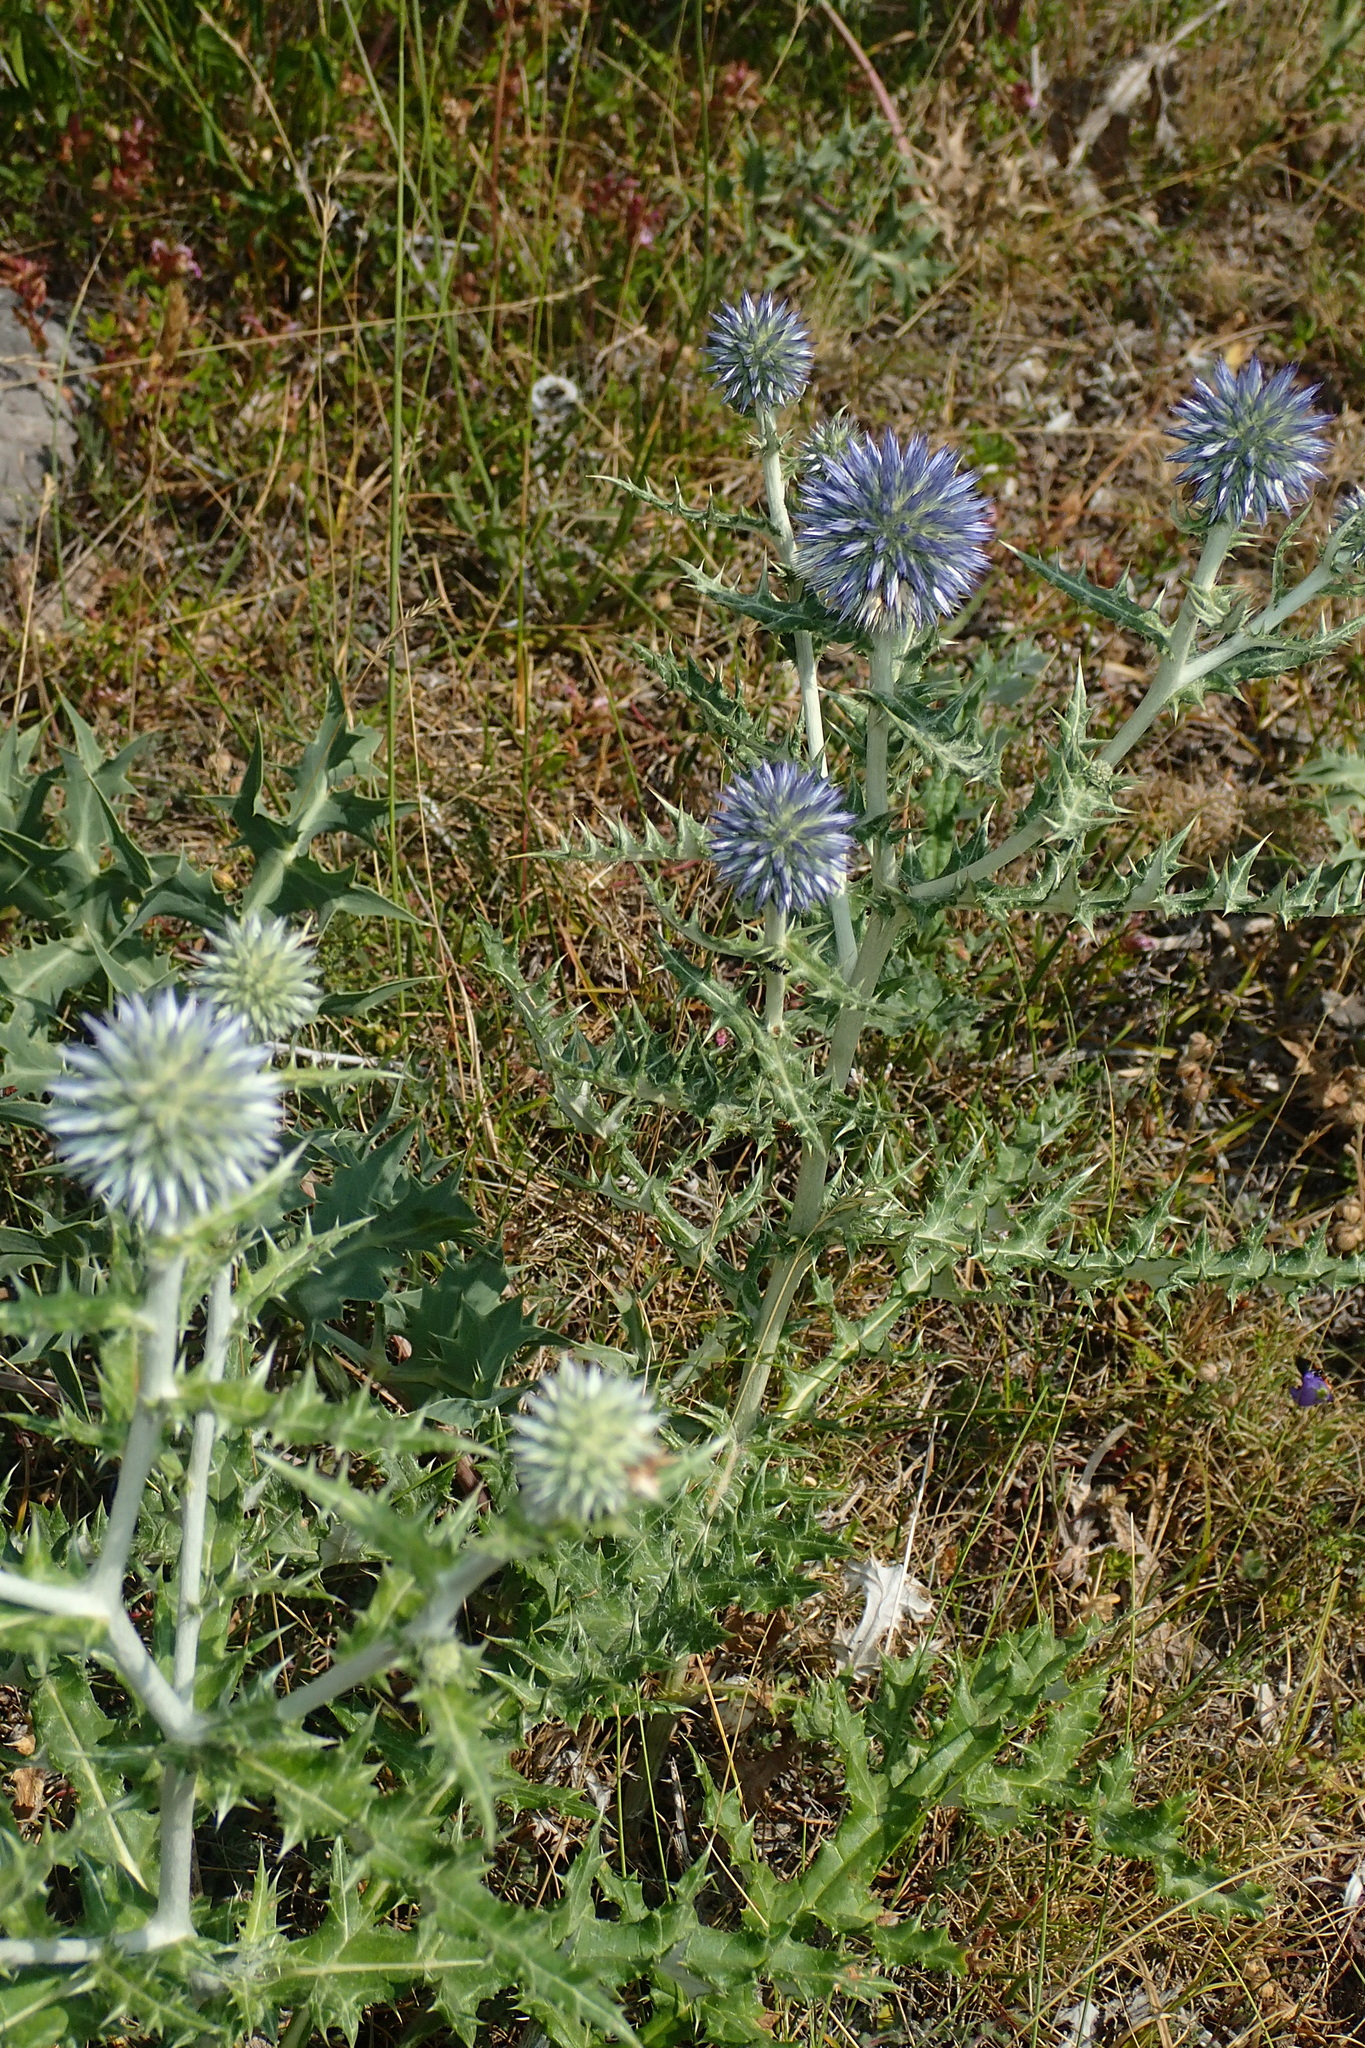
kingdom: Plantae
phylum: Tracheophyta
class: Magnoliopsida
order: Asterales
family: Asteraceae
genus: Echinops
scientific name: Echinops ritro
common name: Globe thistle
